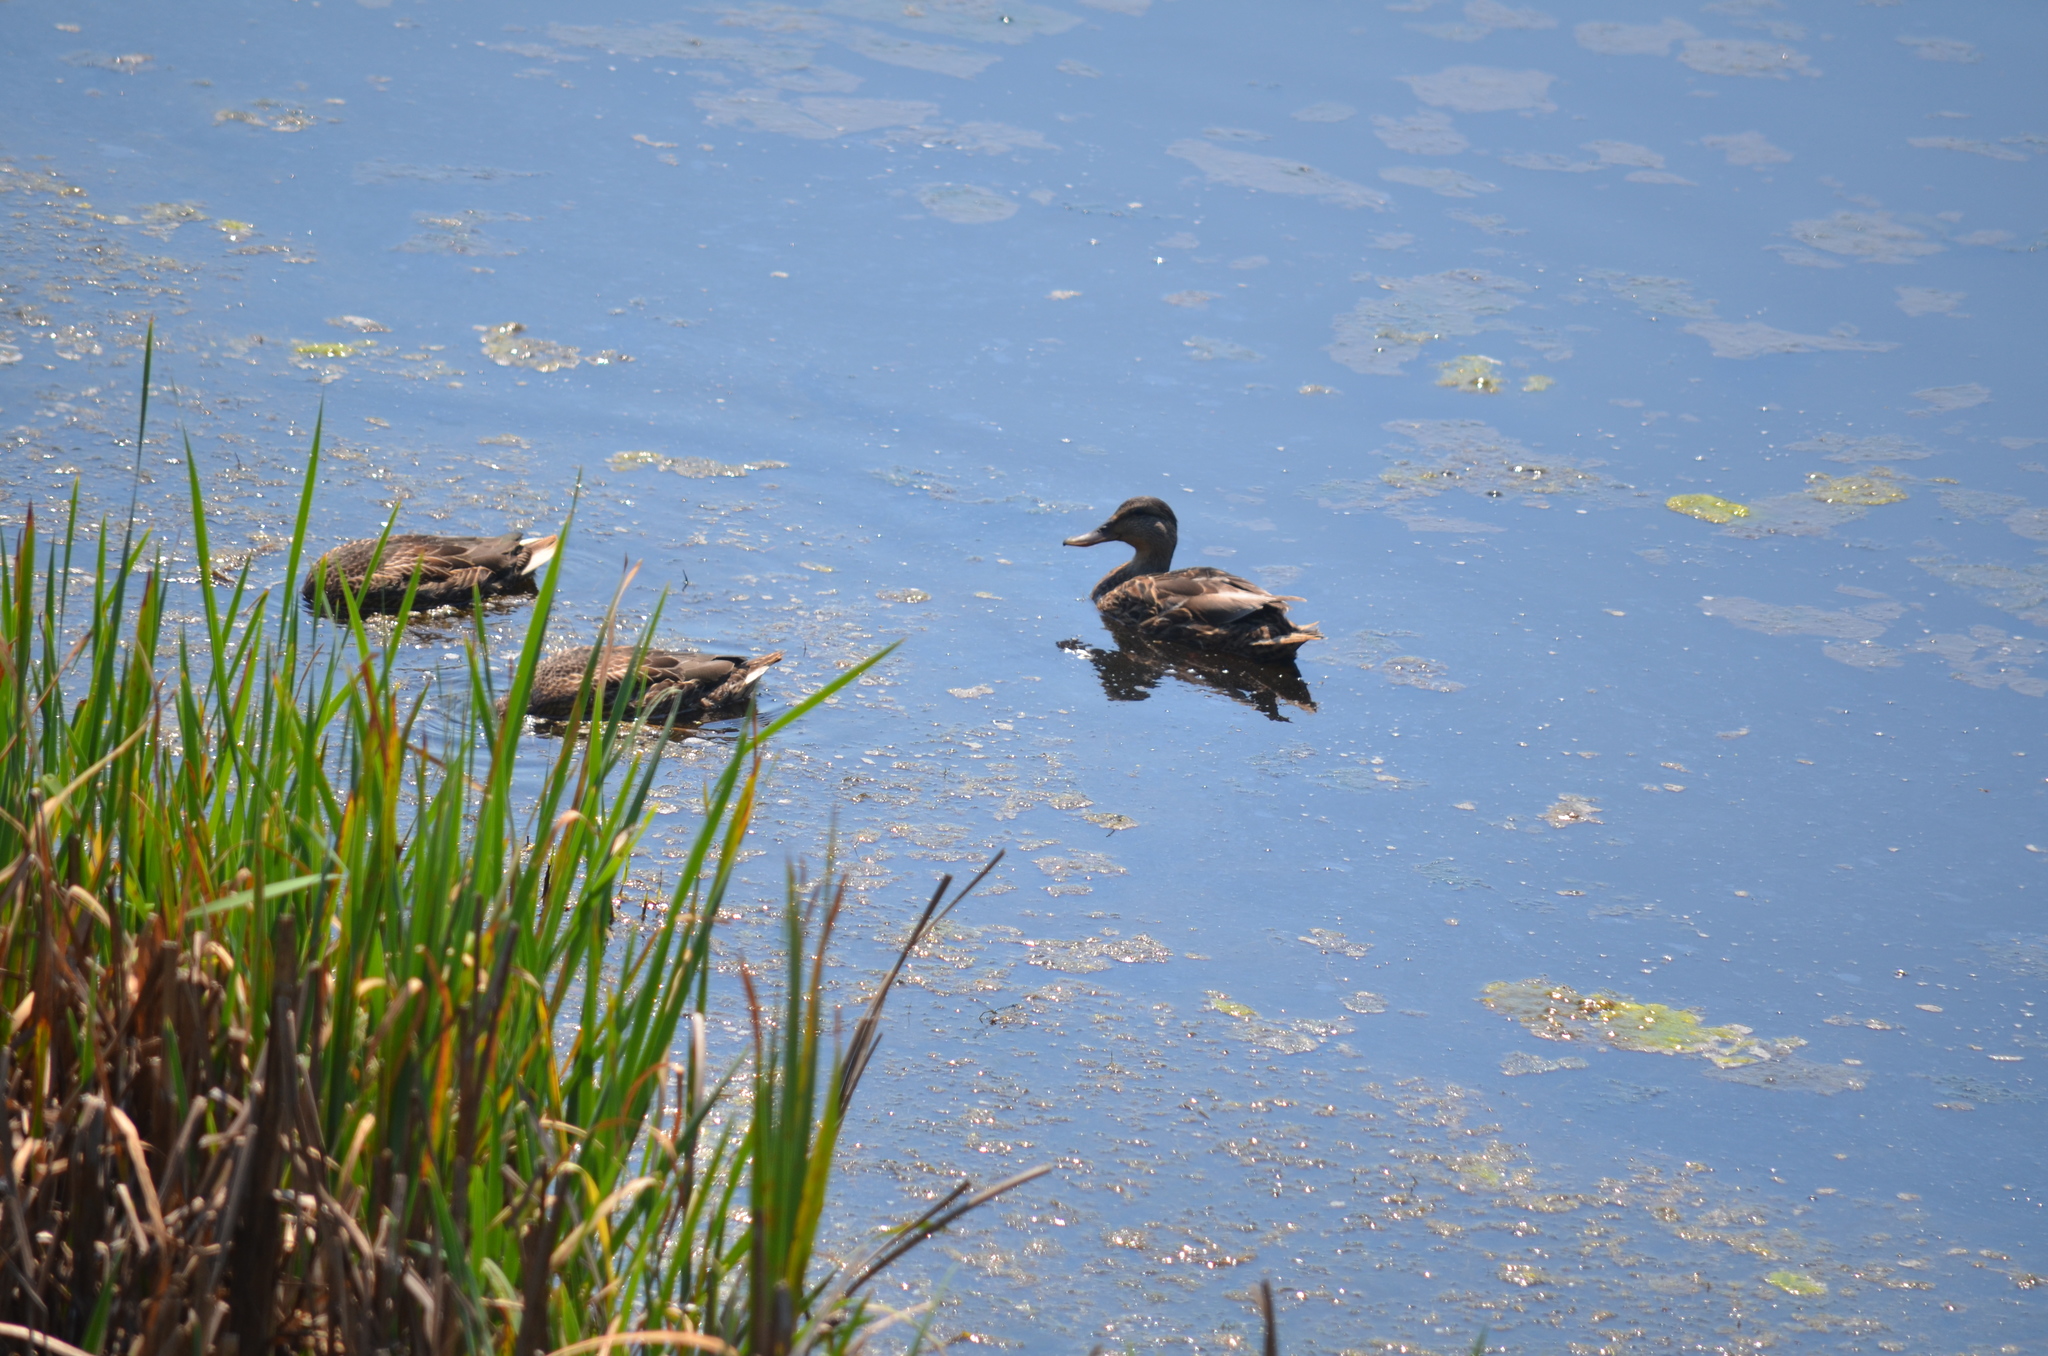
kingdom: Animalia
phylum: Chordata
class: Aves
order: Anseriformes
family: Anatidae
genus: Anas
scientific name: Anas platyrhynchos
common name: Mallard
